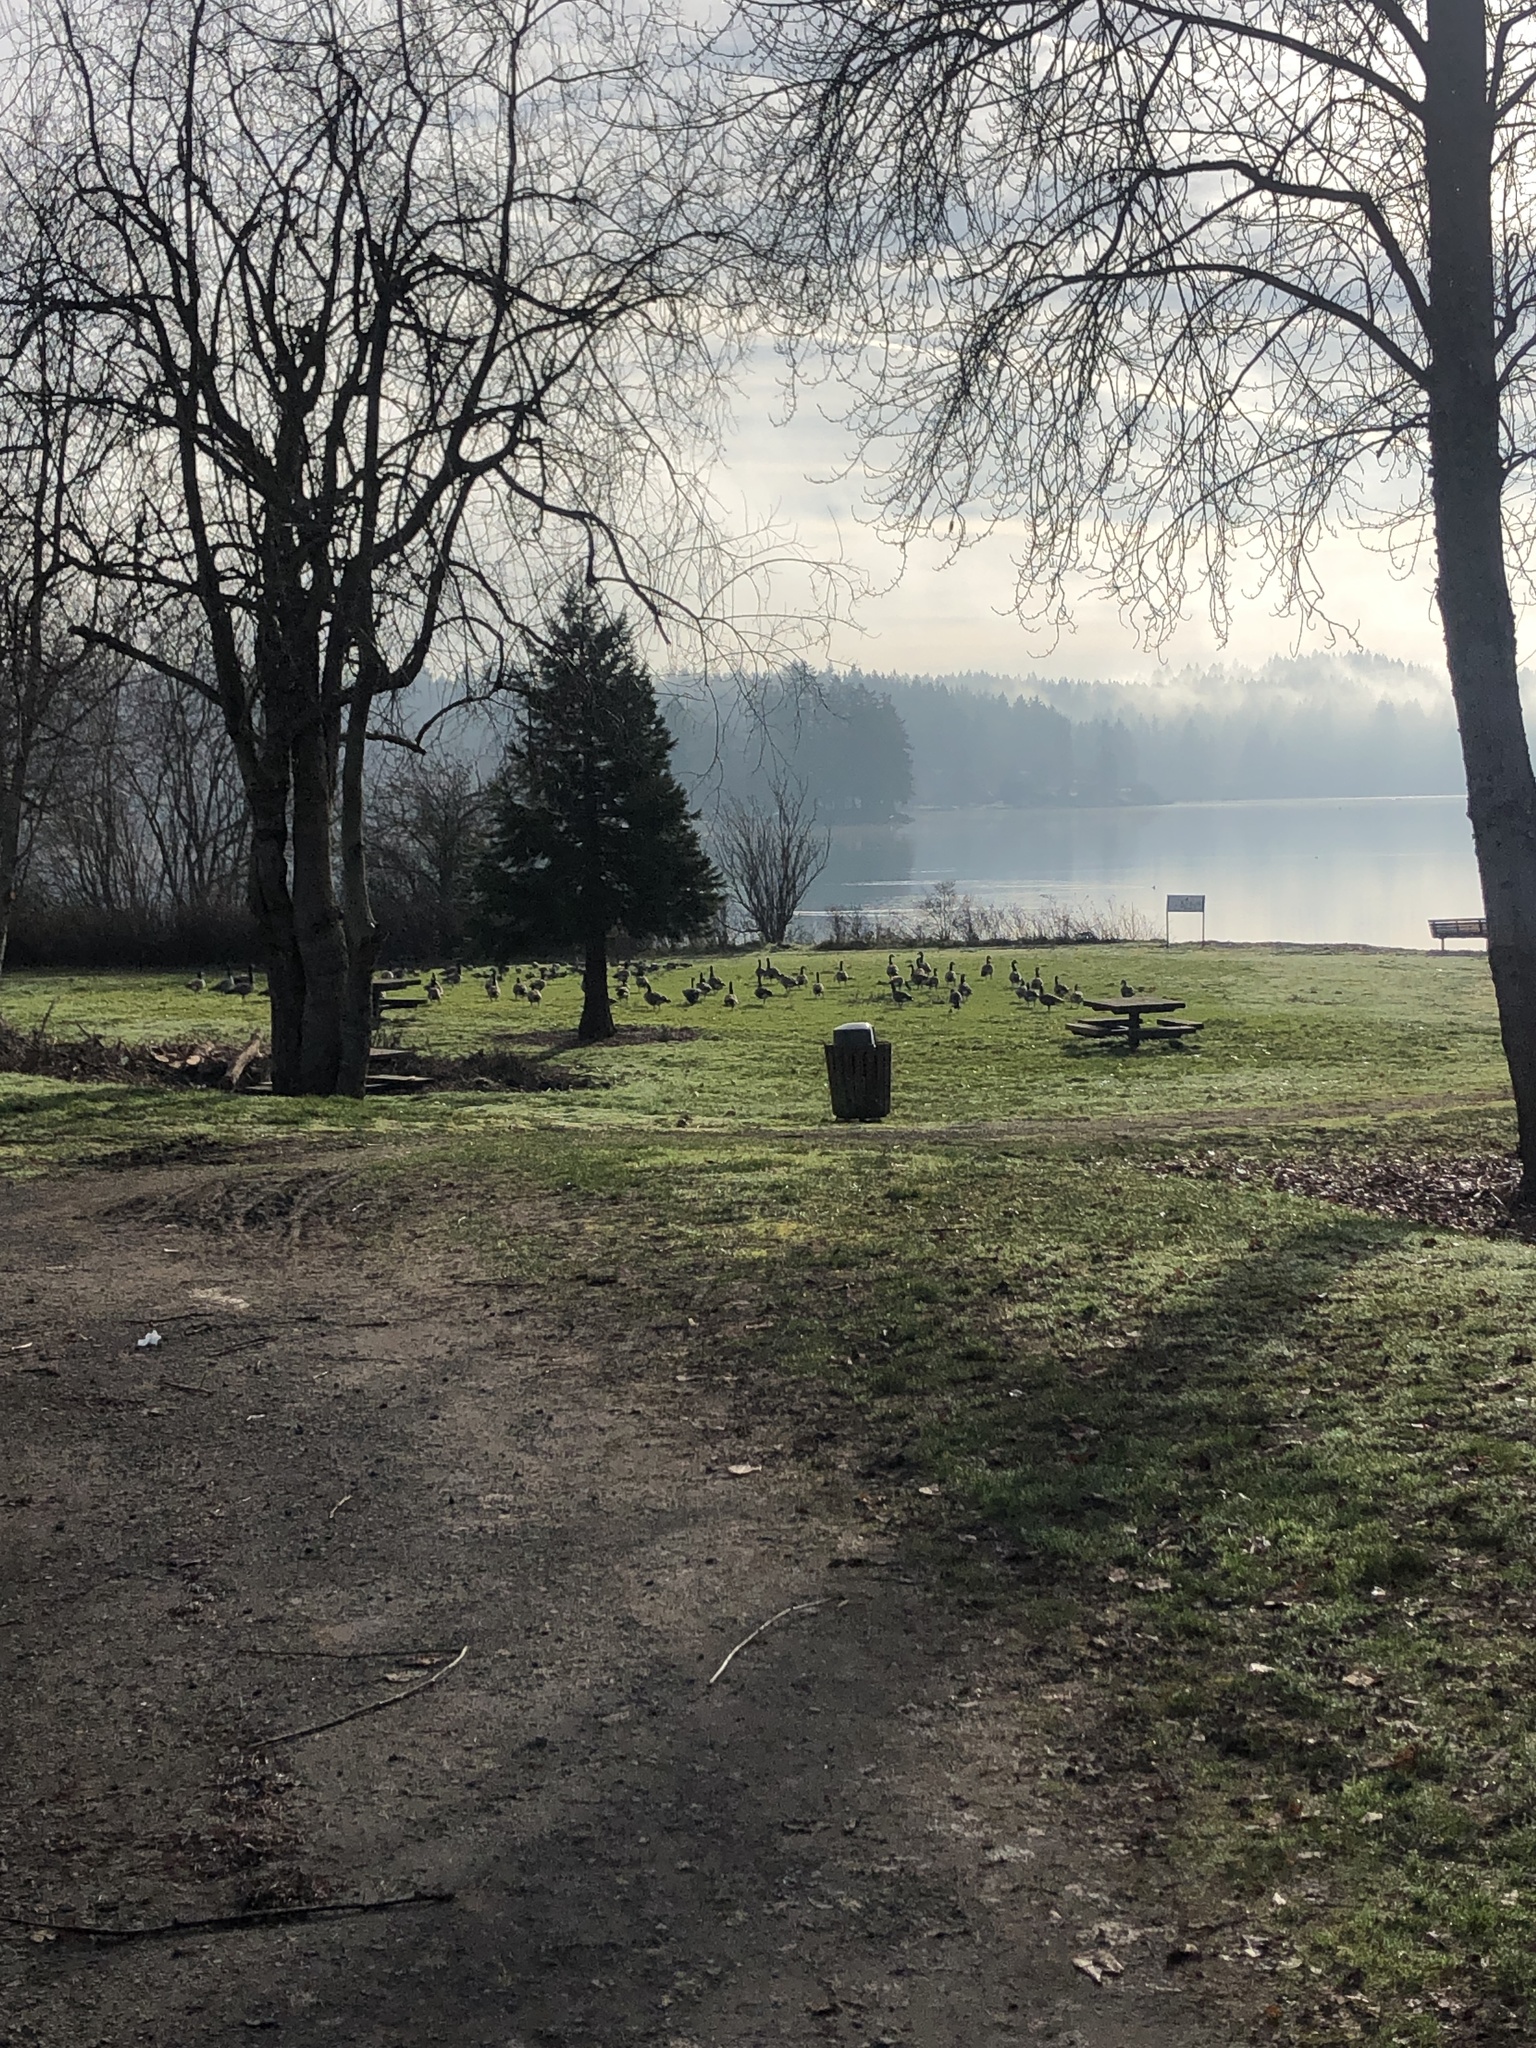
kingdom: Animalia
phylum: Chordata
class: Aves
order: Anseriformes
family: Anatidae
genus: Branta
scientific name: Branta canadensis
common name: Canada goose
